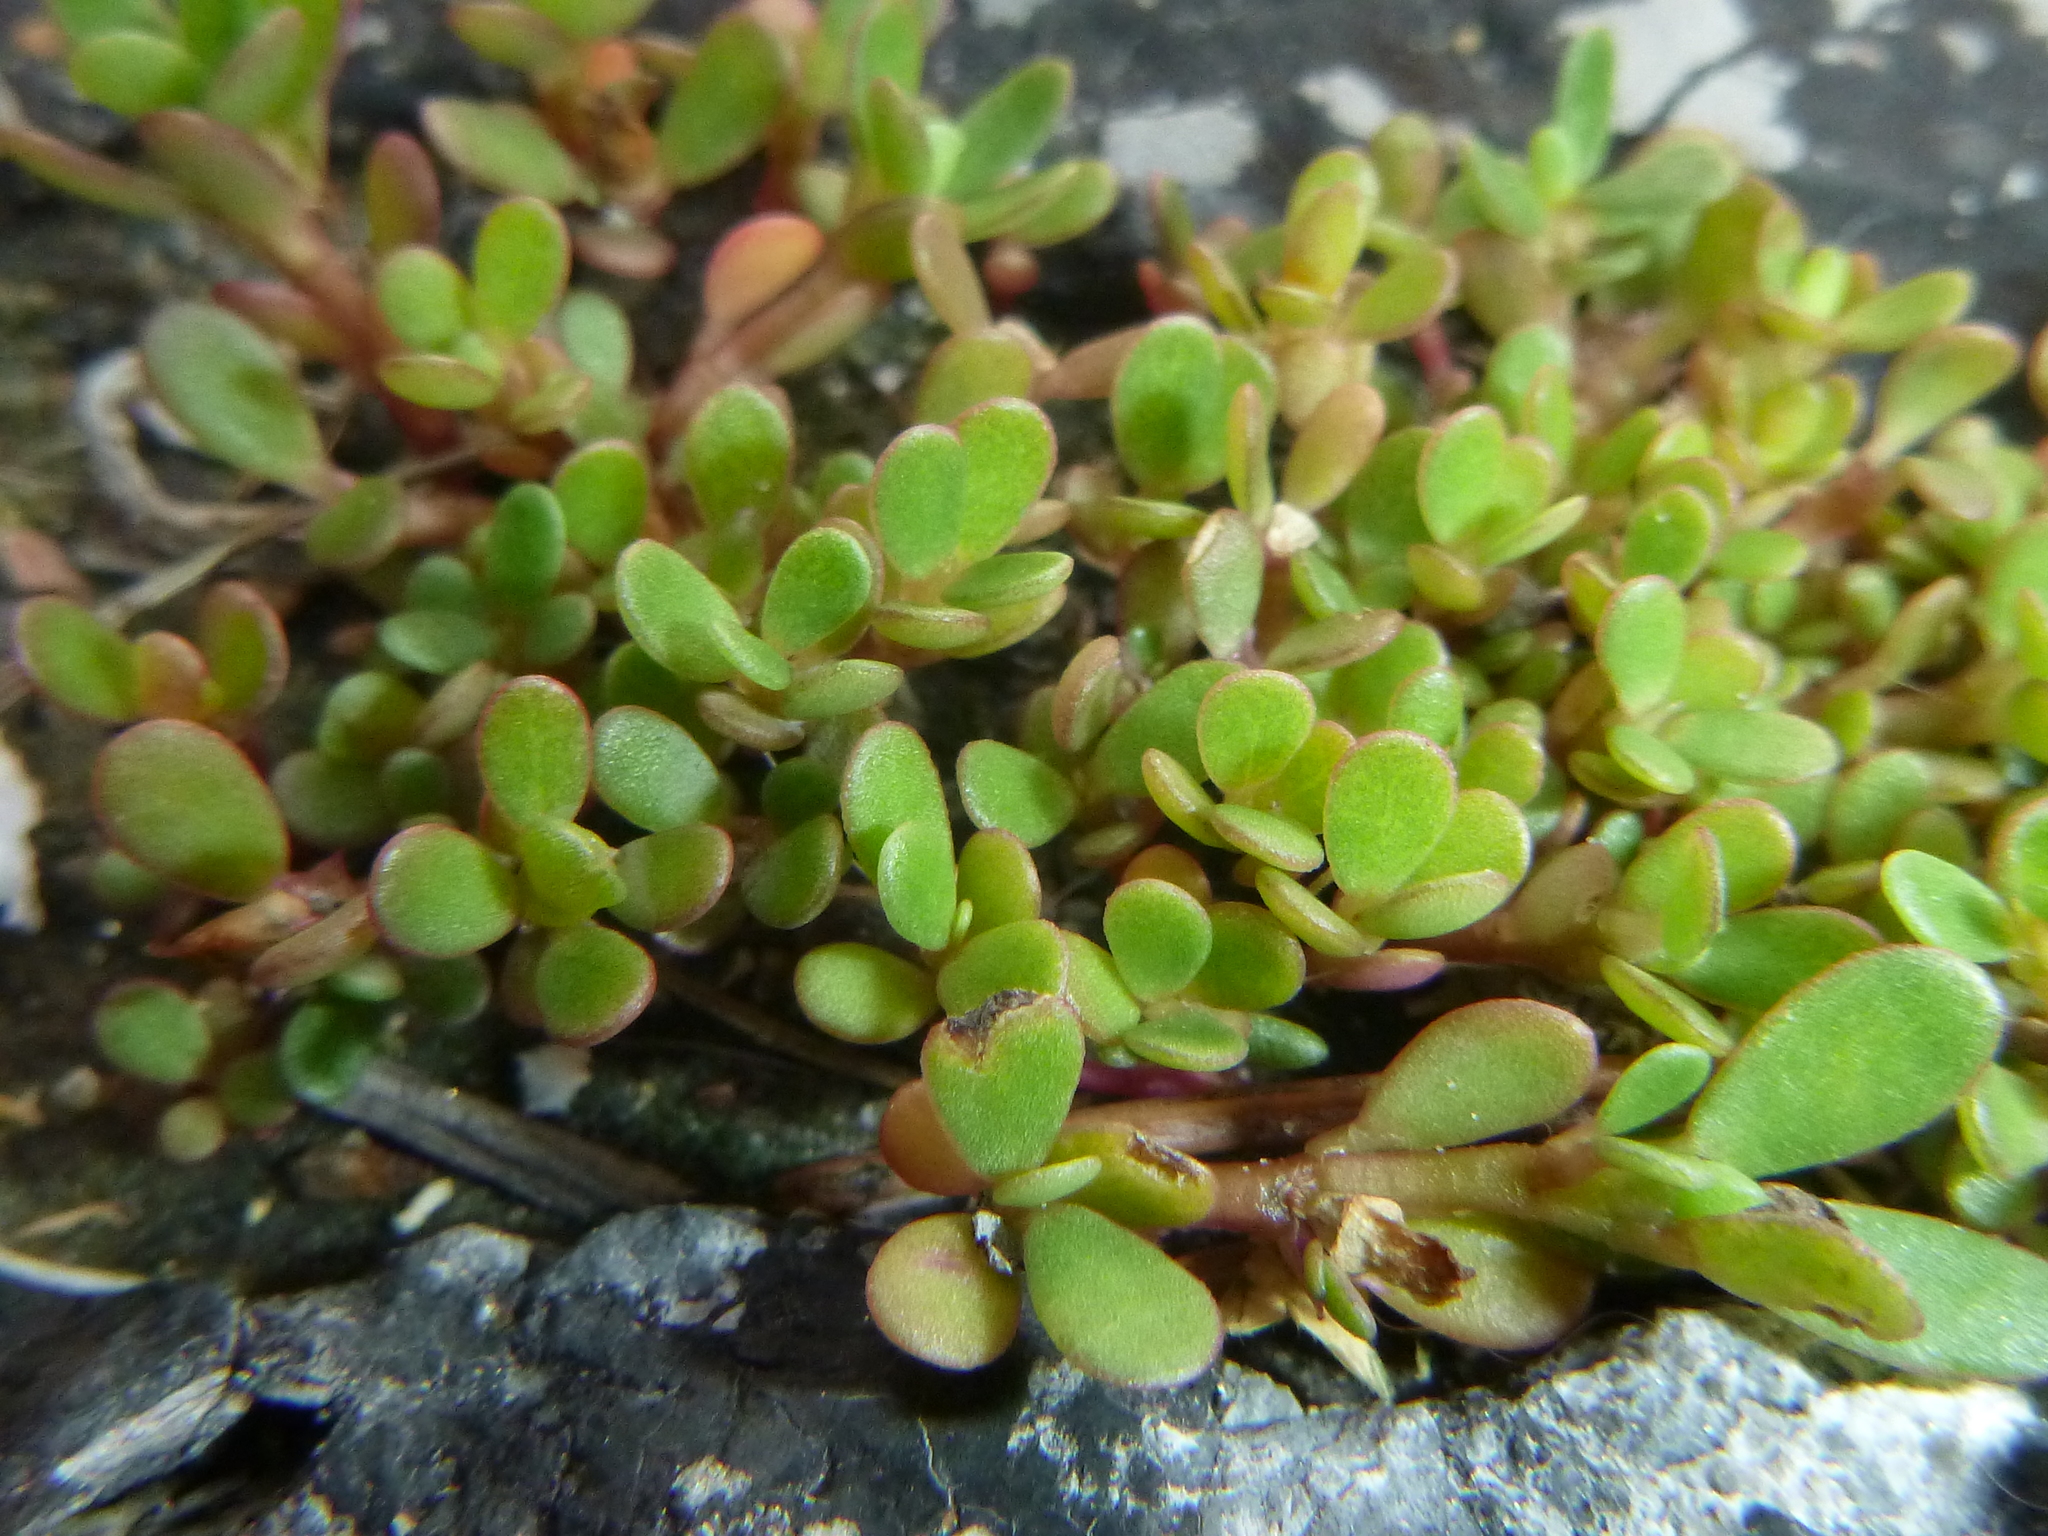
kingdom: Plantae
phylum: Tracheophyta
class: Magnoliopsida
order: Caryophyllales
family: Portulacaceae
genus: Portulaca
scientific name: Portulaca oleracea
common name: Common purslane
